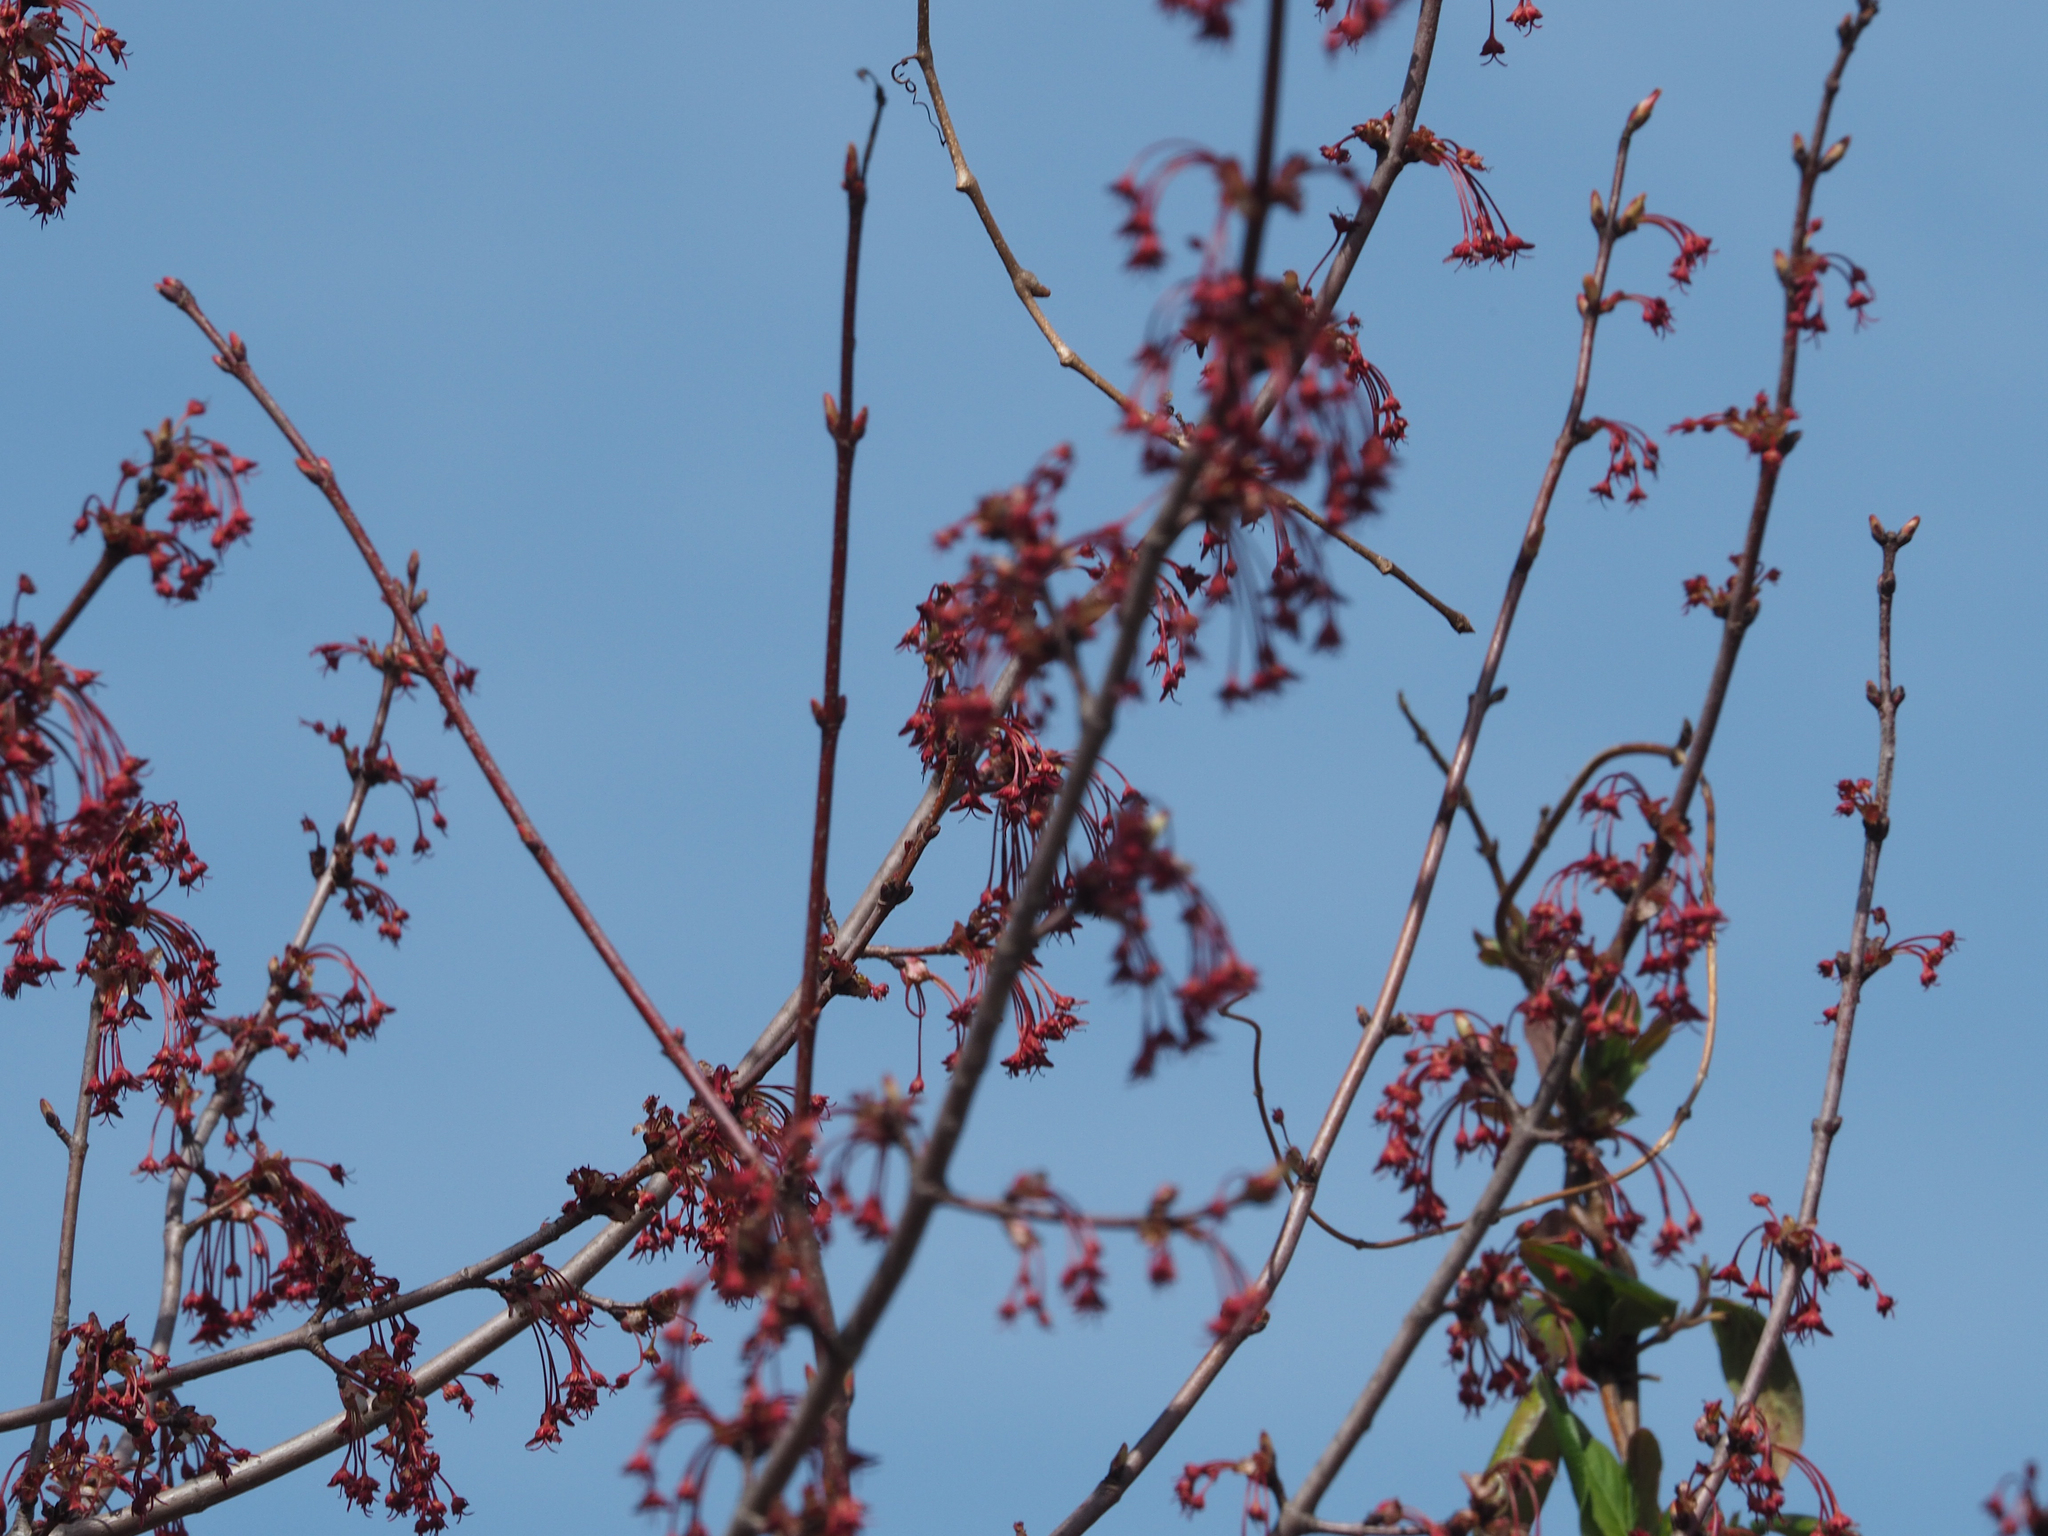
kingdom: Plantae
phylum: Tracheophyta
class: Magnoliopsida
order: Sapindales
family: Sapindaceae
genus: Acer
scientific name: Acer rubrum
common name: Red maple
